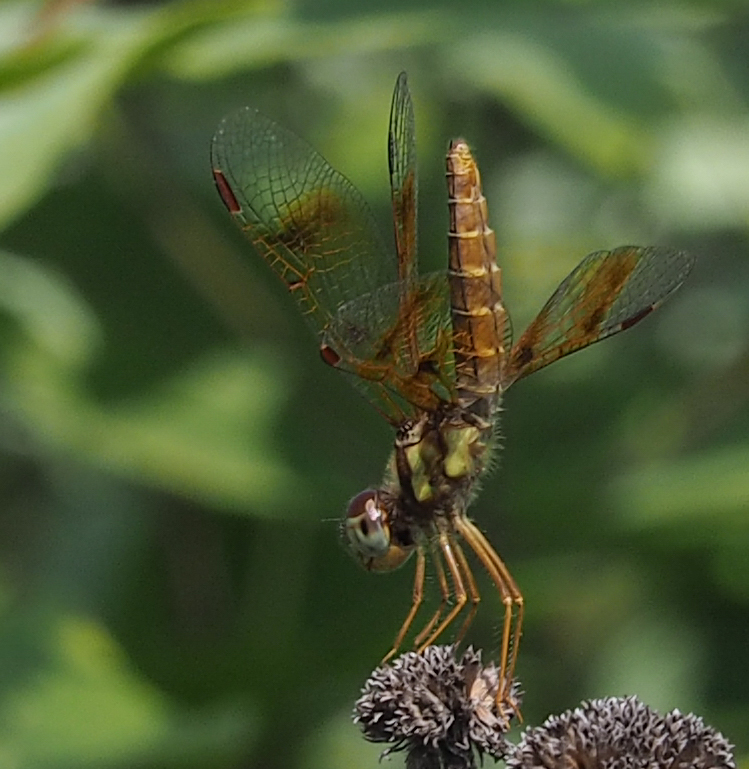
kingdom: Animalia
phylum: Arthropoda
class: Insecta
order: Odonata
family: Libellulidae
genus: Perithemis
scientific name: Perithemis tenera
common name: Eastern amberwing
